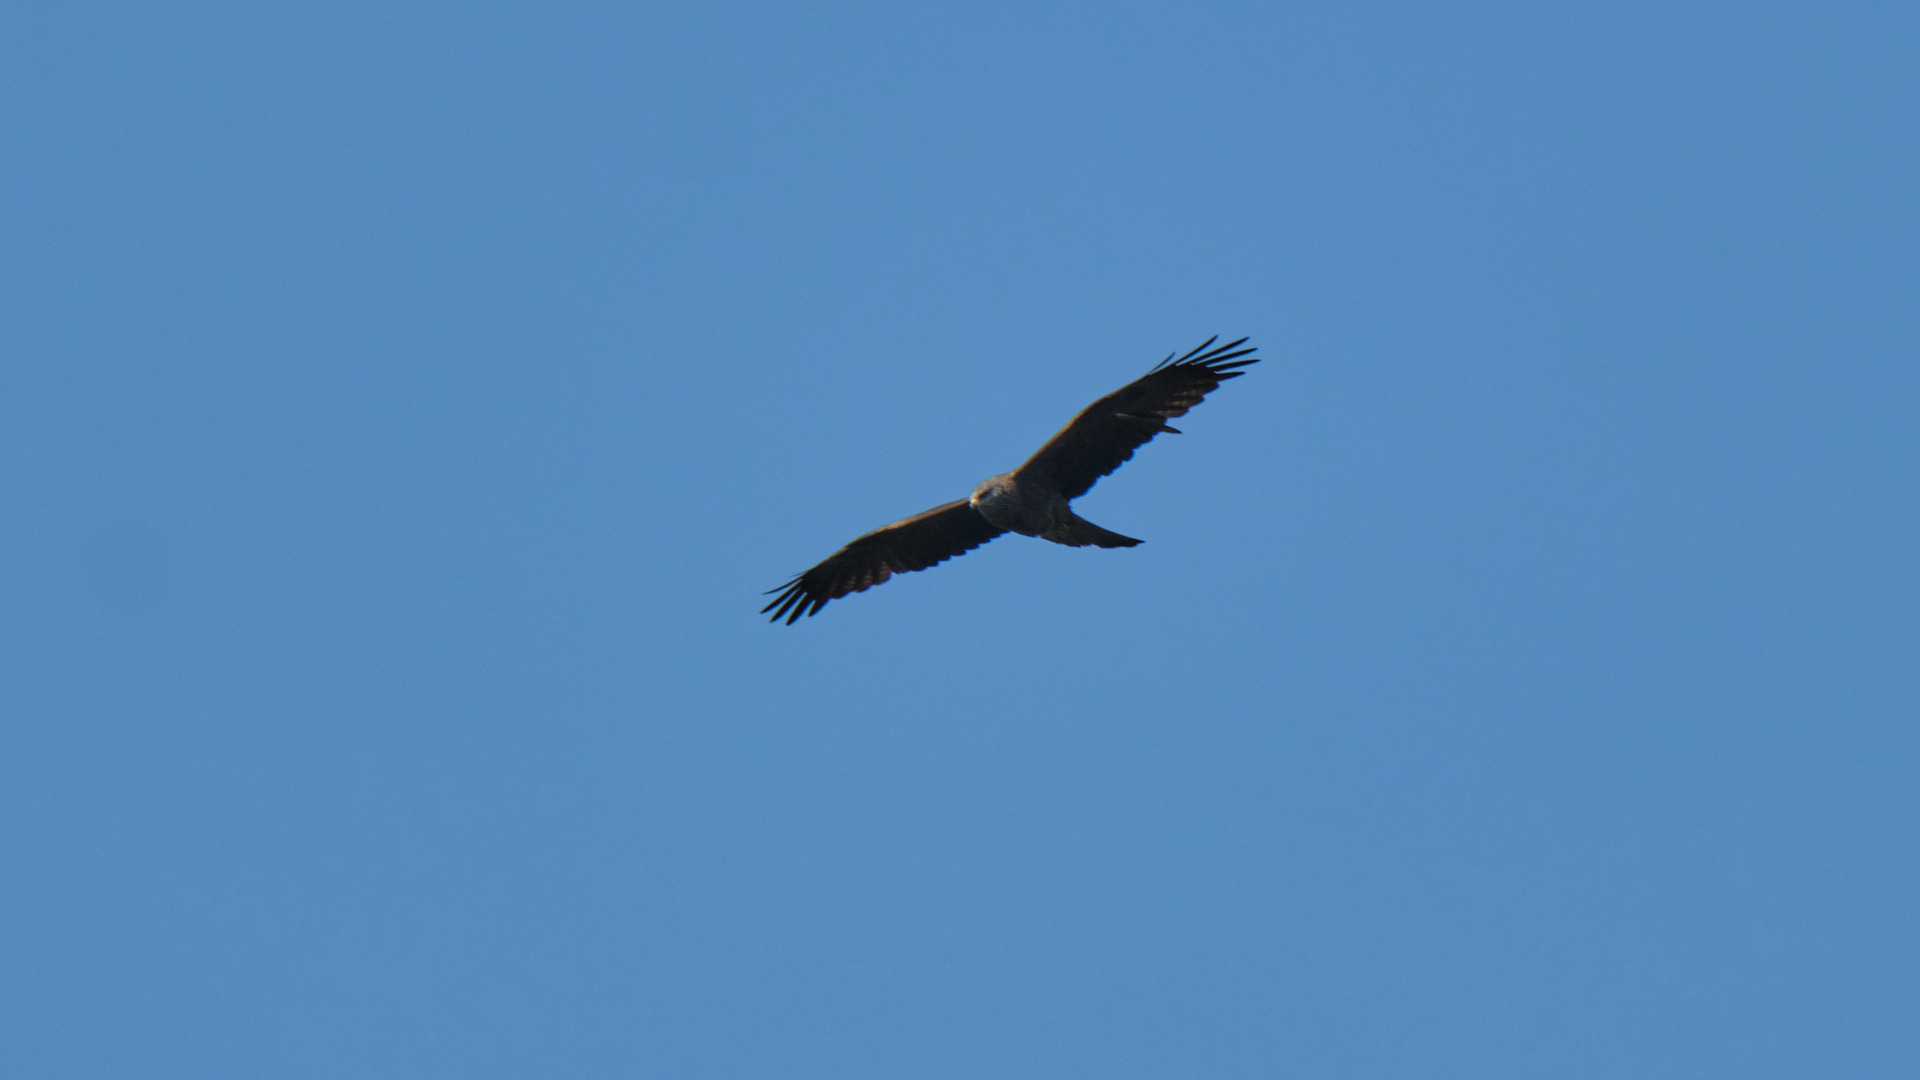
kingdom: Animalia
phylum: Chordata
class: Aves
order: Accipitriformes
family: Accipitridae
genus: Milvus
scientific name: Milvus migrans
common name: Black kite
